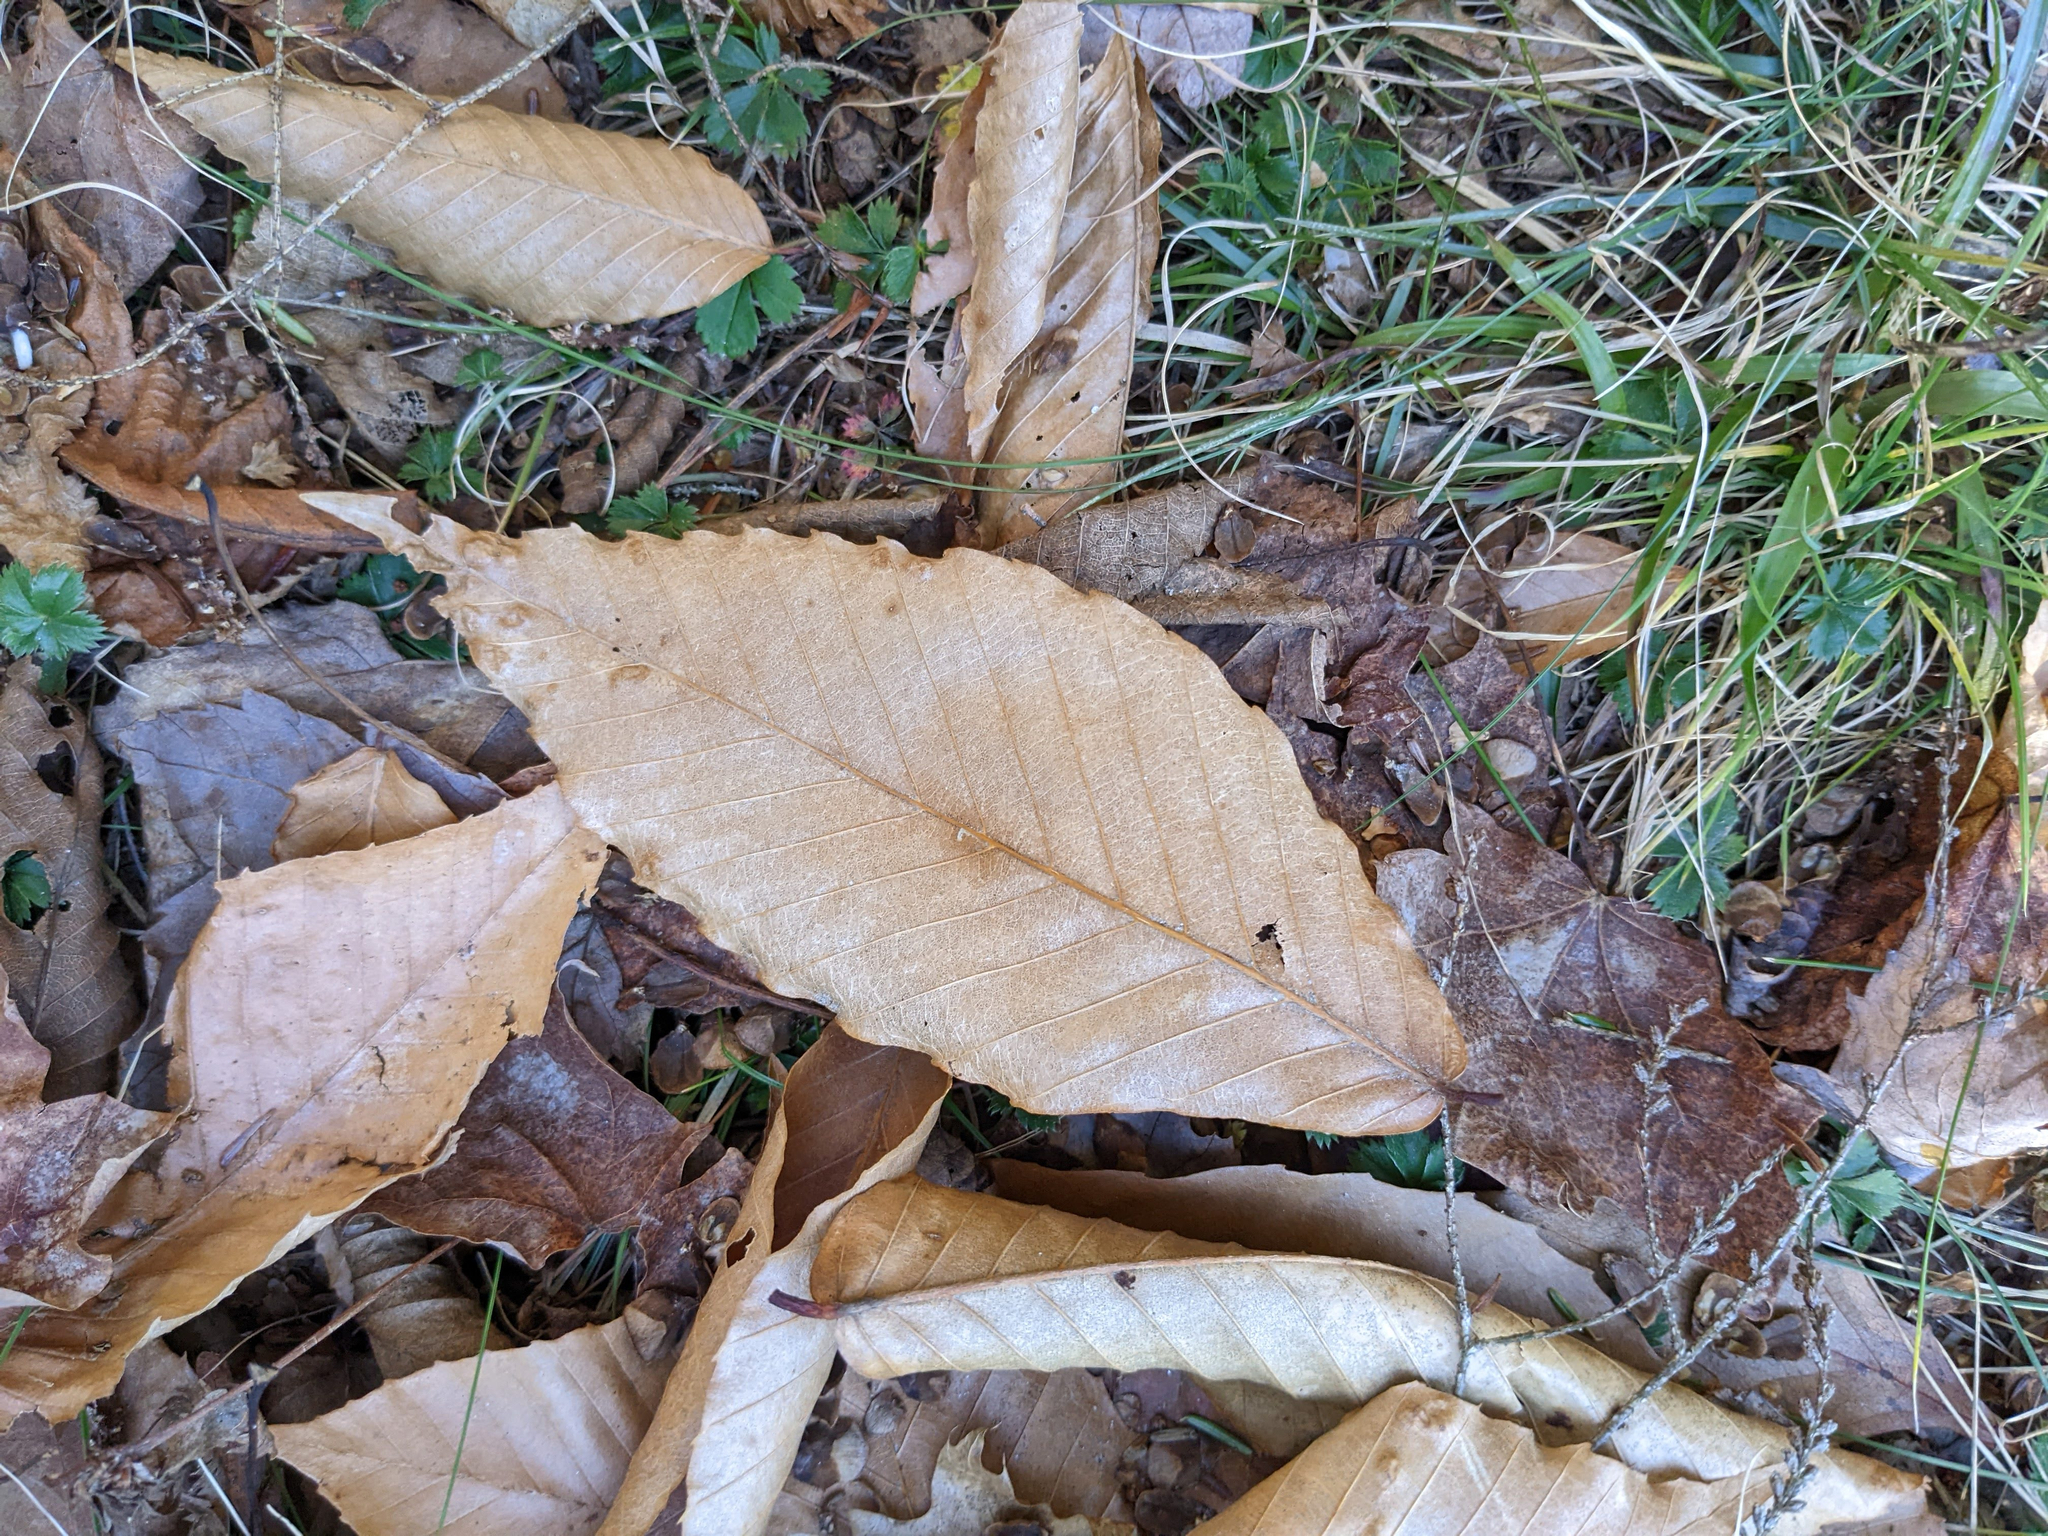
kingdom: Plantae
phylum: Tracheophyta
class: Magnoliopsida
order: Fagales
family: Fagaceae
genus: Fagus
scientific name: Fagus grandifolia
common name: American beech
